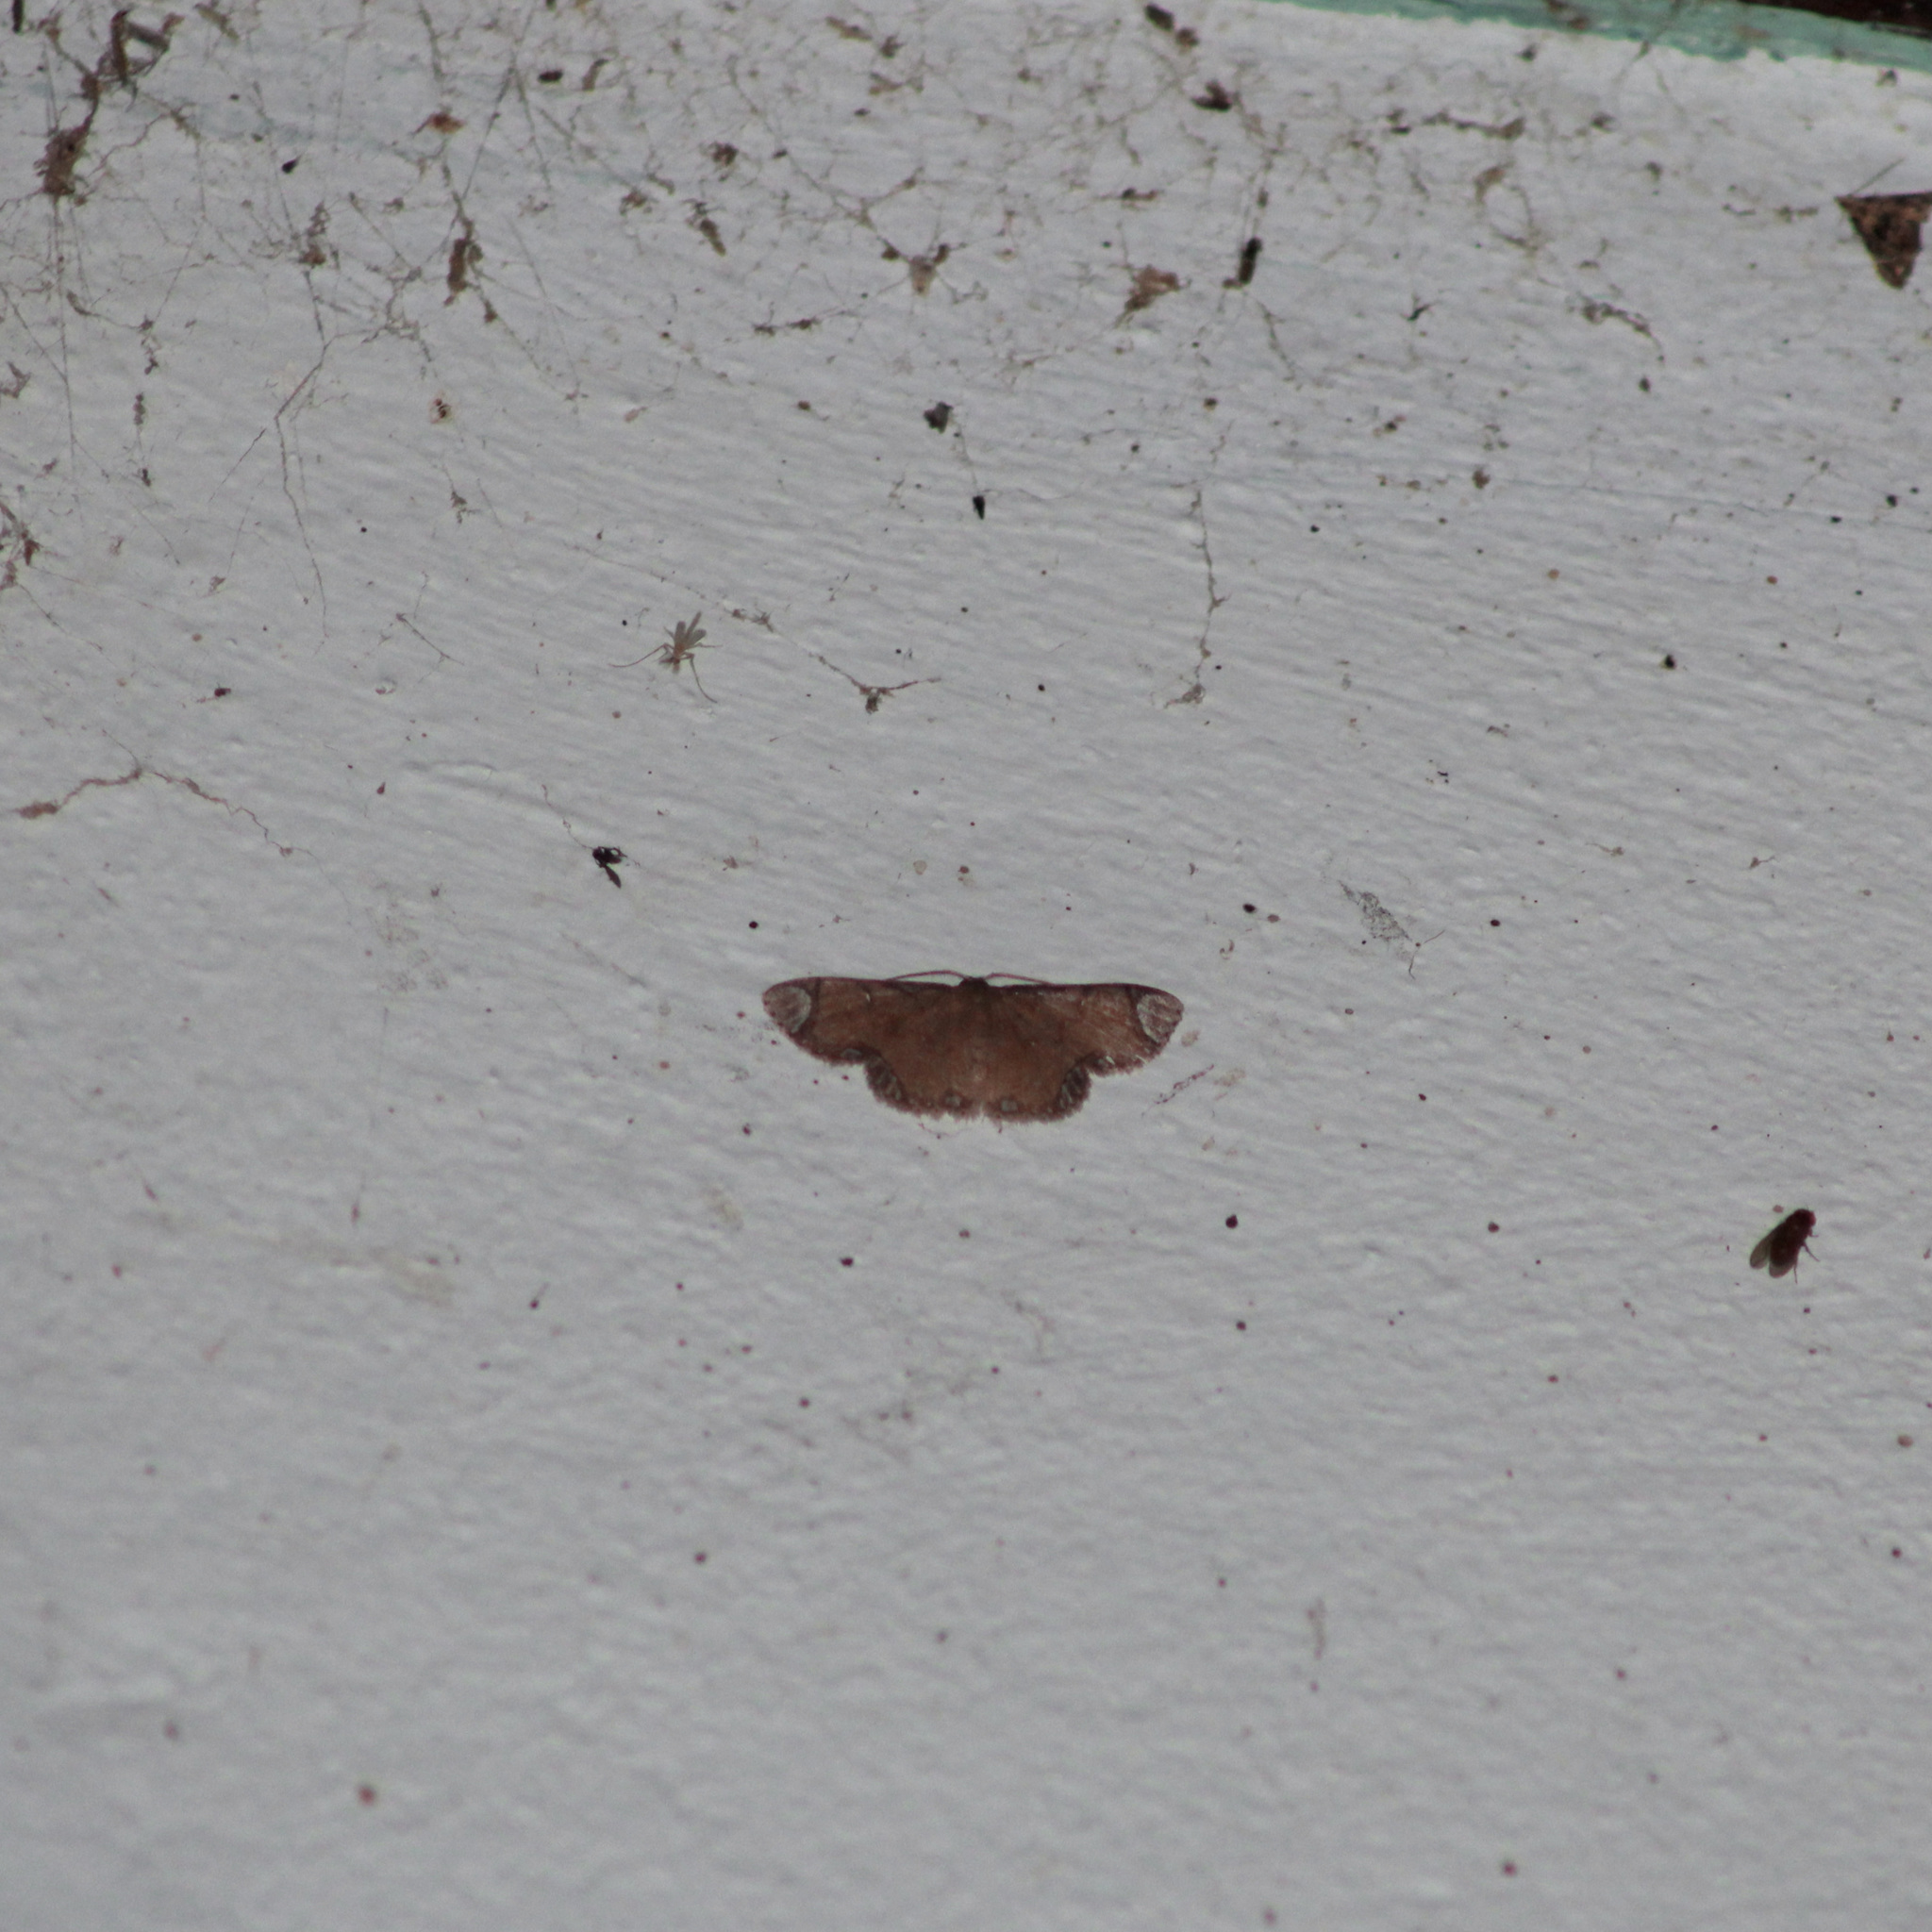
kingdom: Animalia
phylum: Arthropoda
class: Insecta
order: Lepidoptera
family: Geometridae
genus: Lipotaxia
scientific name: Lipotaxia rubicunda
